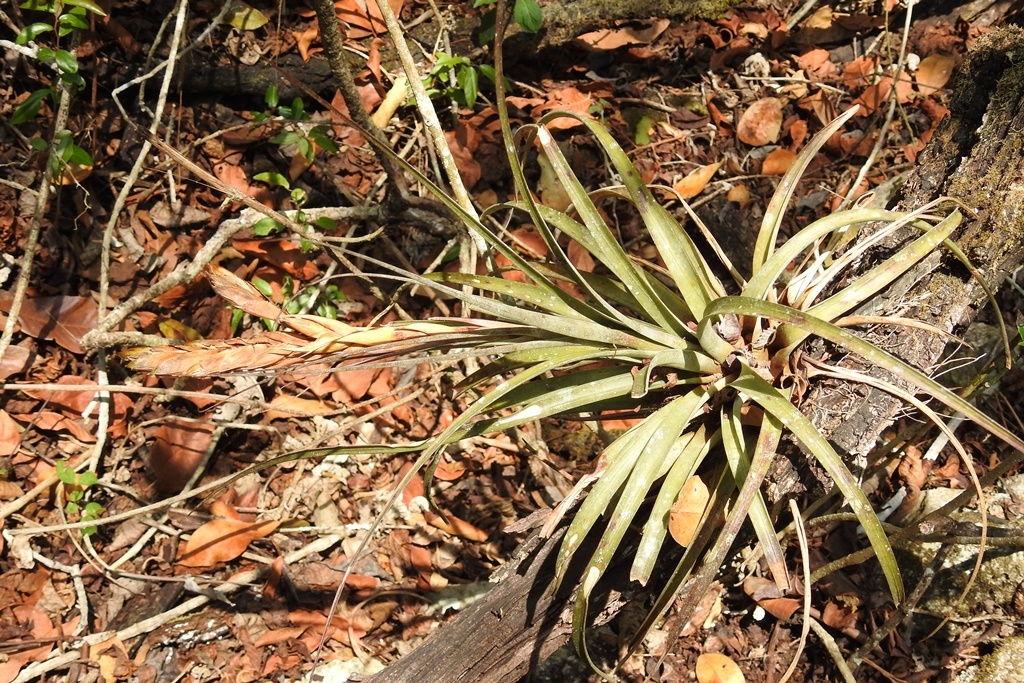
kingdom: Plantae
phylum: Tracheophyta
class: Liliopsida
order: Poales
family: Bromeliaceae
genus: Tillandsia
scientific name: Tillandsia zoquensis
